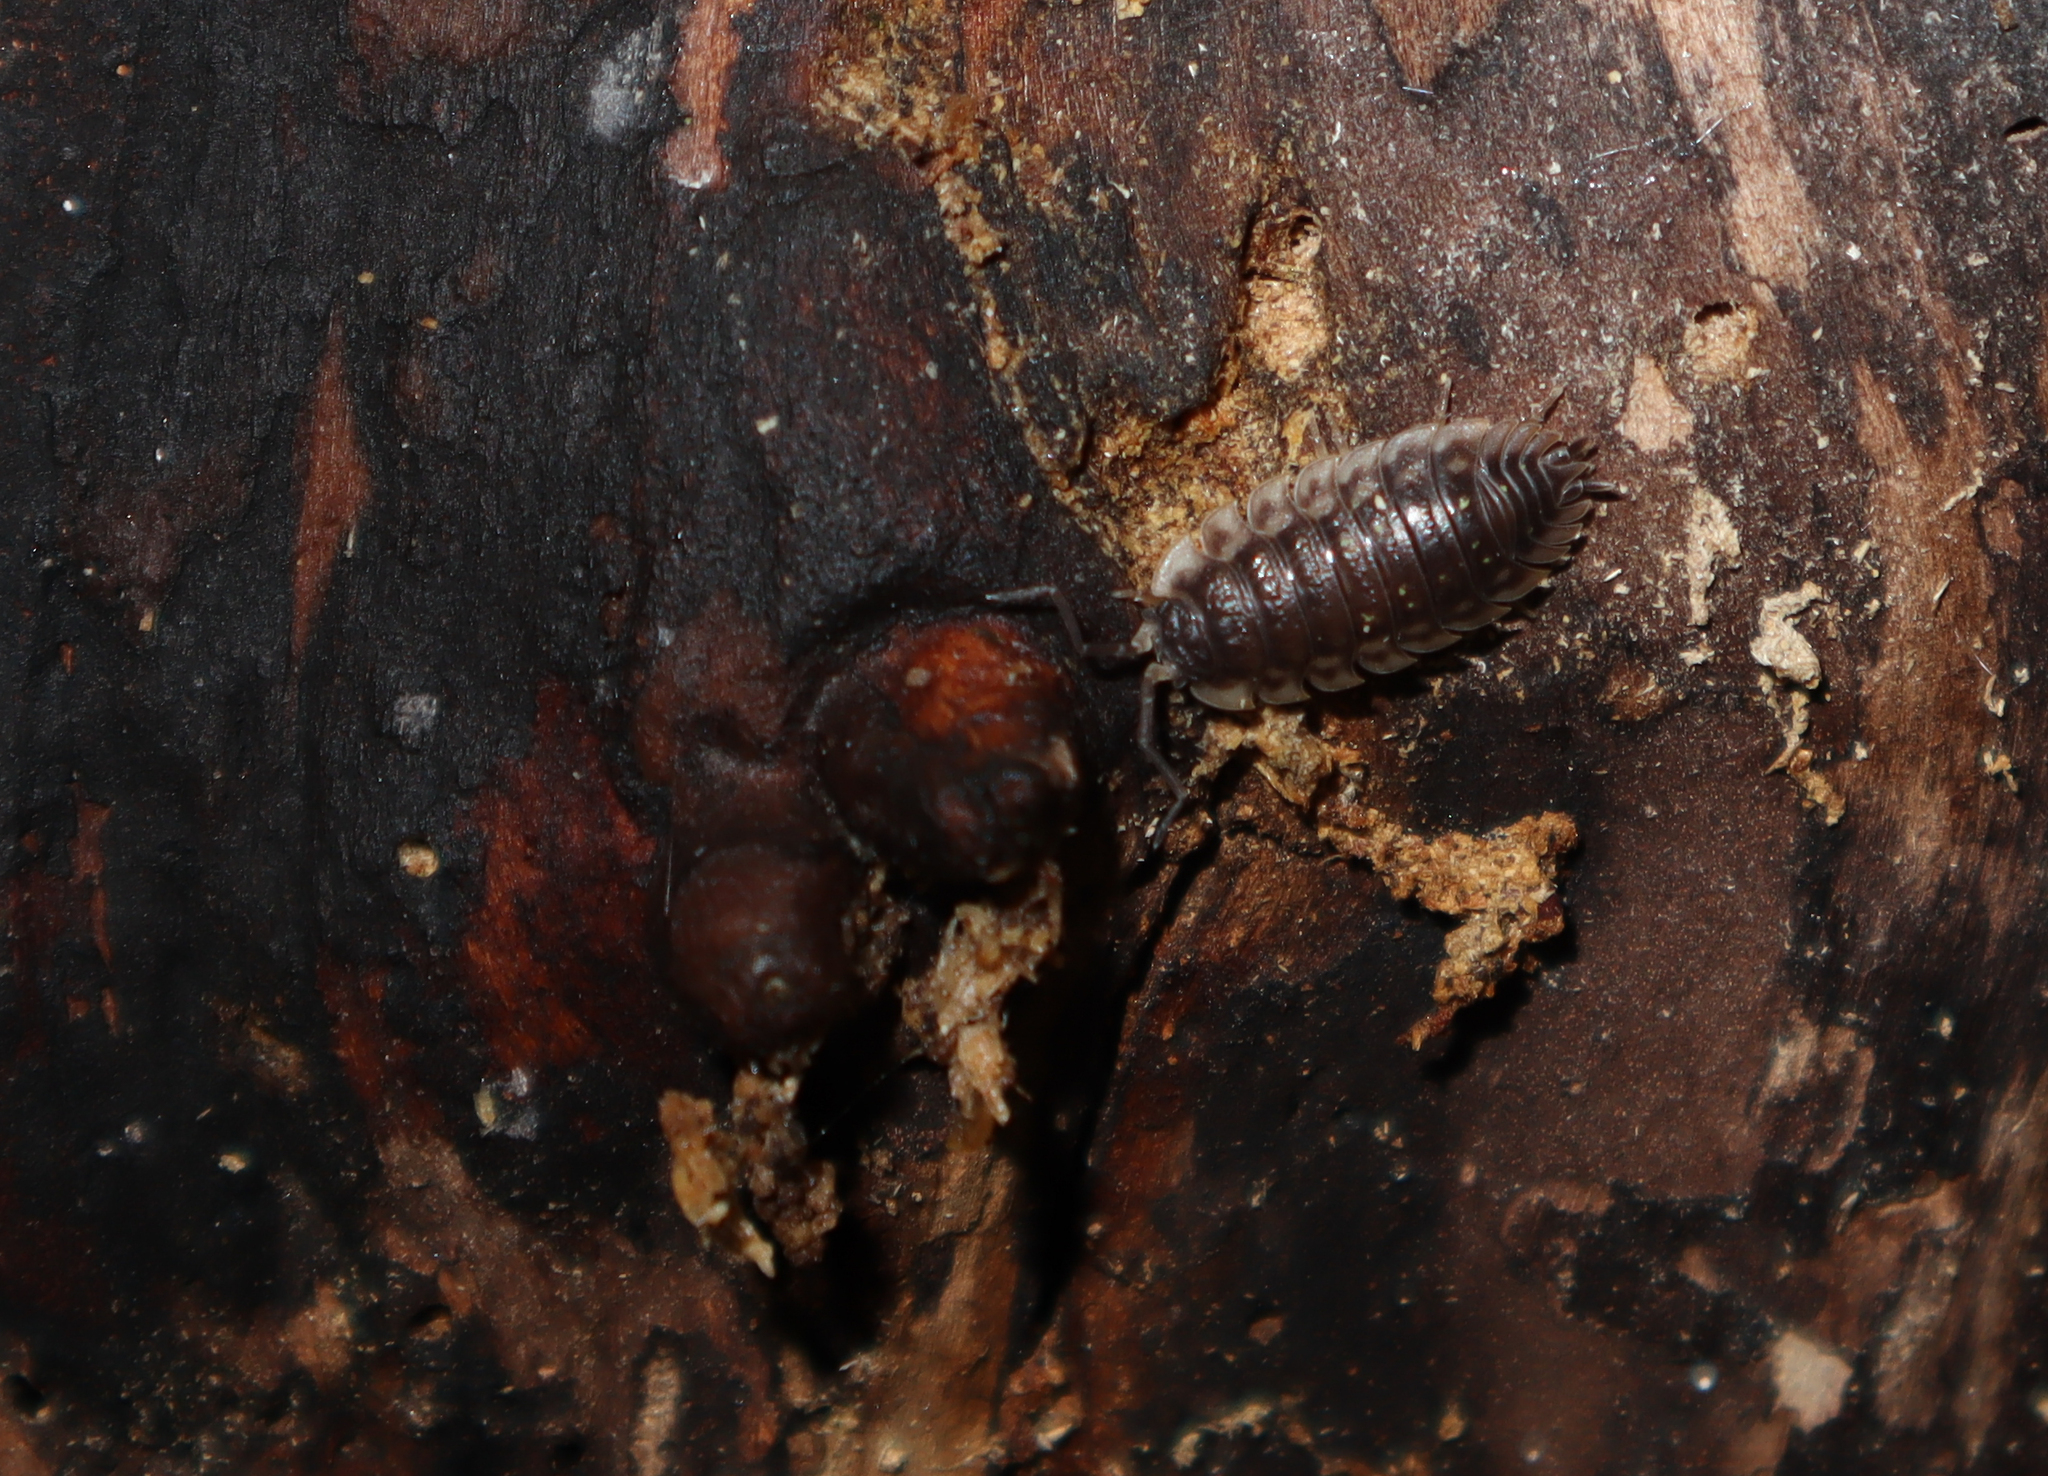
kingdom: Animalia
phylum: Arthropoda
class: Malacostraca
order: Isopoda
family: Oniscidae
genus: Oniscus
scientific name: Oniscus asellus
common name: Common shiny woodlouse
